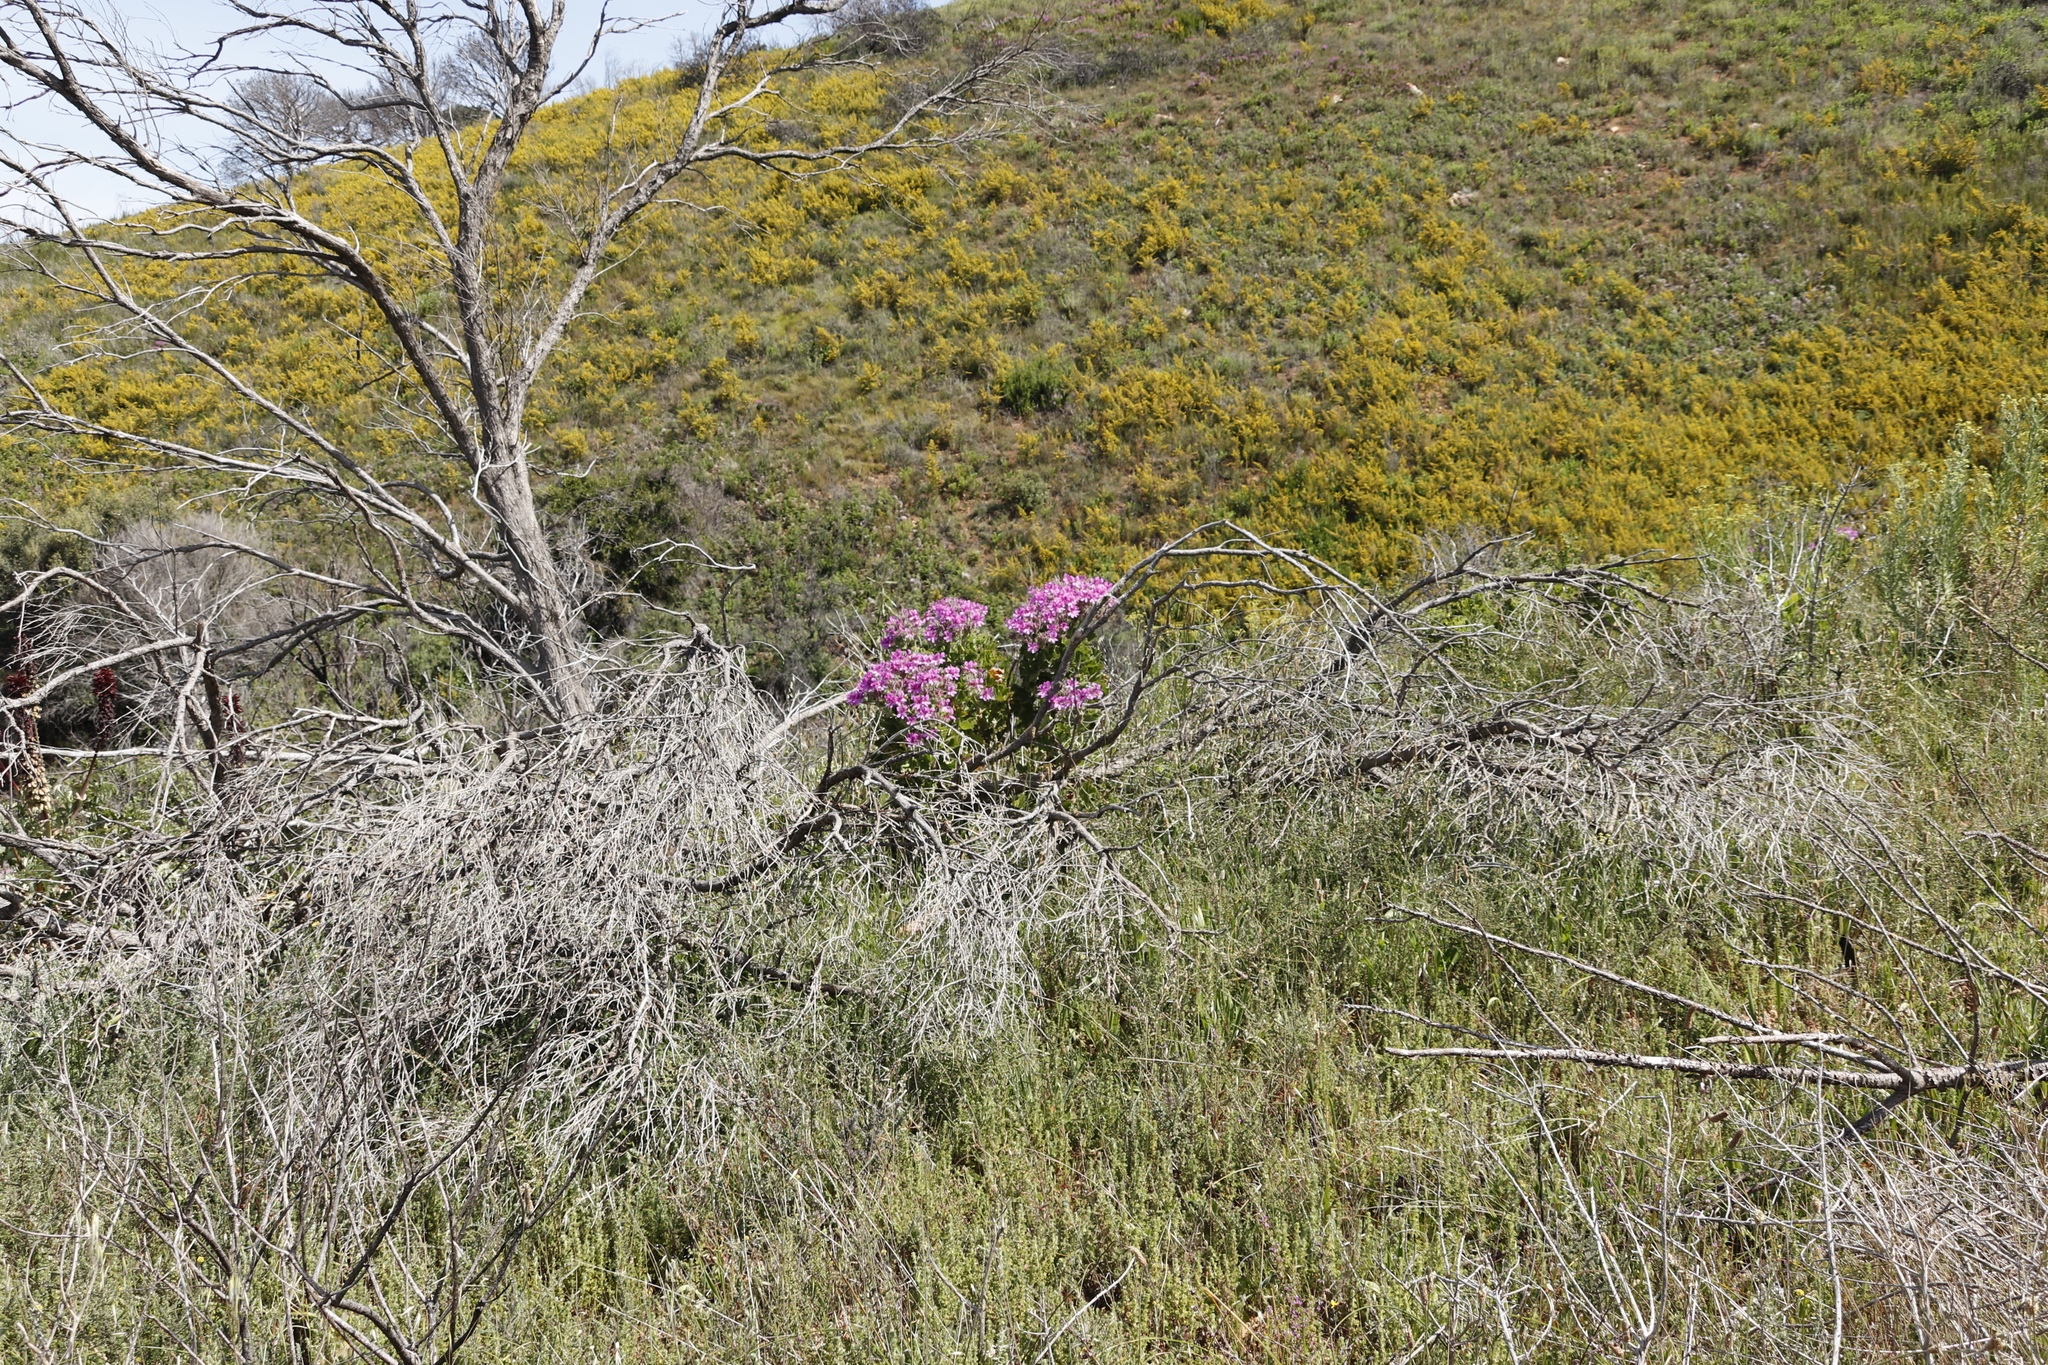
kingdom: Plantae
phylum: Tracheophyta
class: Magnoliopsida
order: Geraniales
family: Geraniaceae
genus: Pelargonium
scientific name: Pelargonium cucullatum
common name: Tree pelargonium
